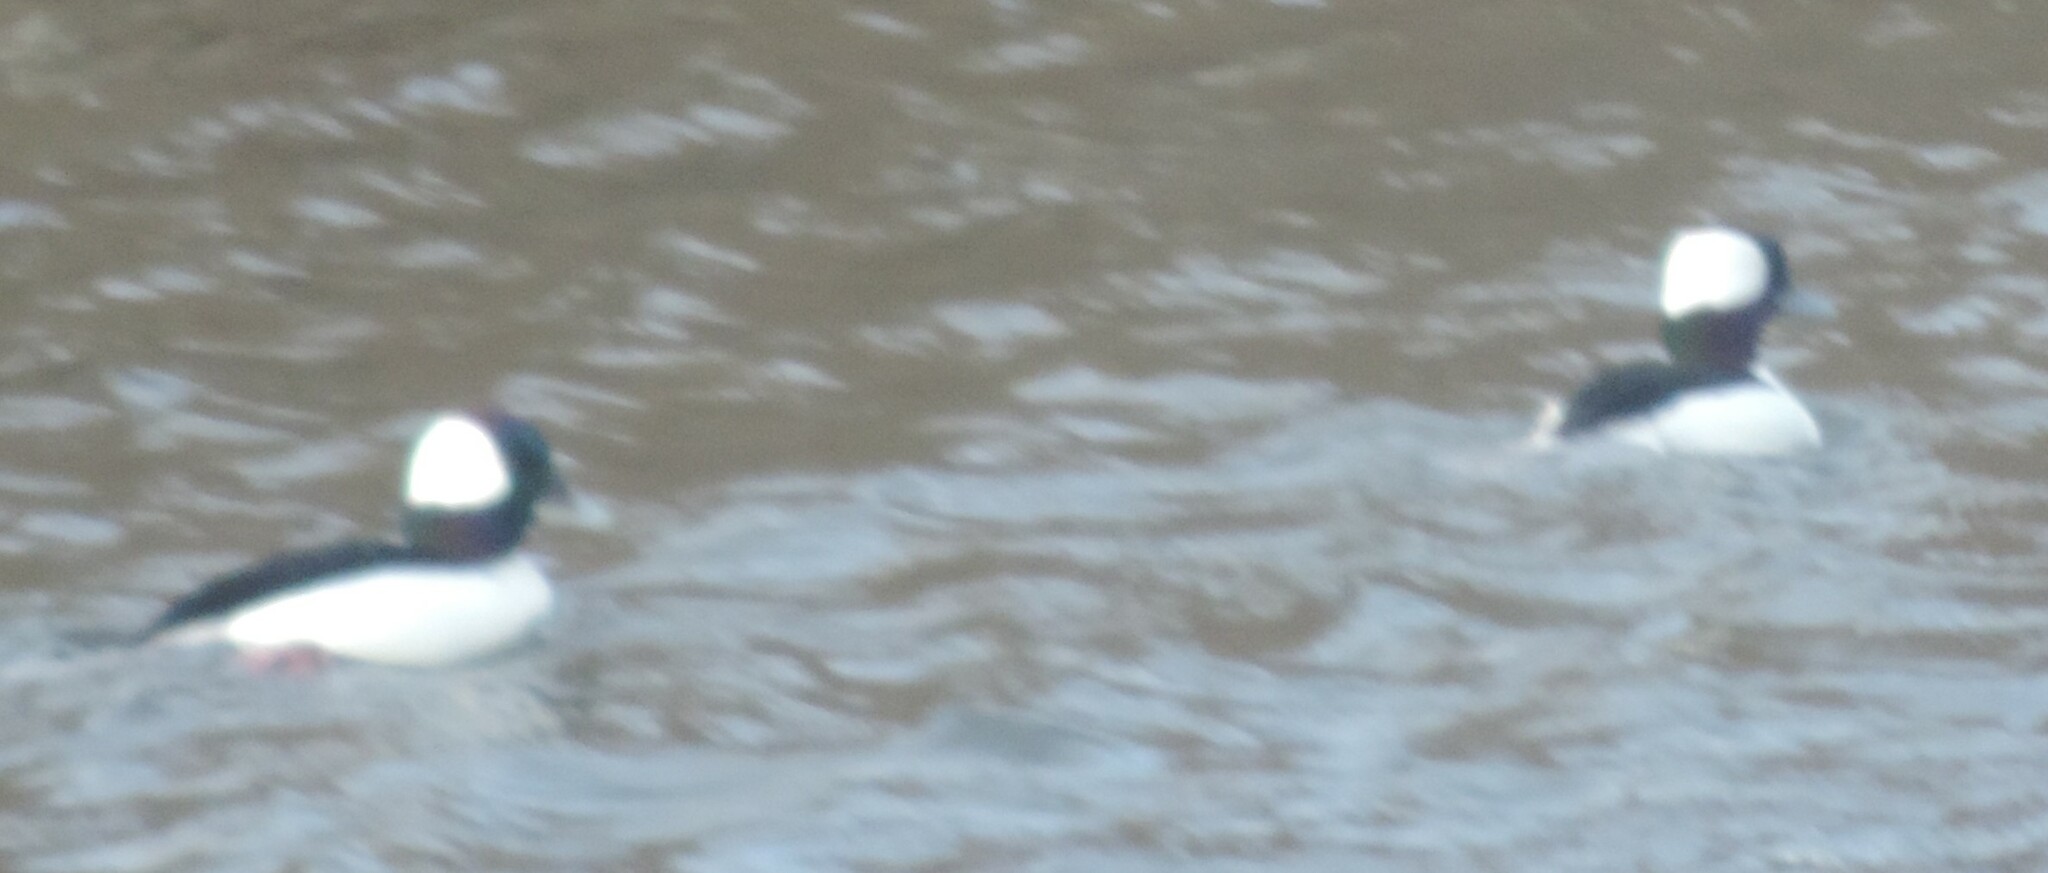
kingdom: Animalia
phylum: Chordata
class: Aves
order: Anseriformes
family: Anatidae
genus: Bucephala
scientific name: Bucephala albeola
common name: Bufflehead
